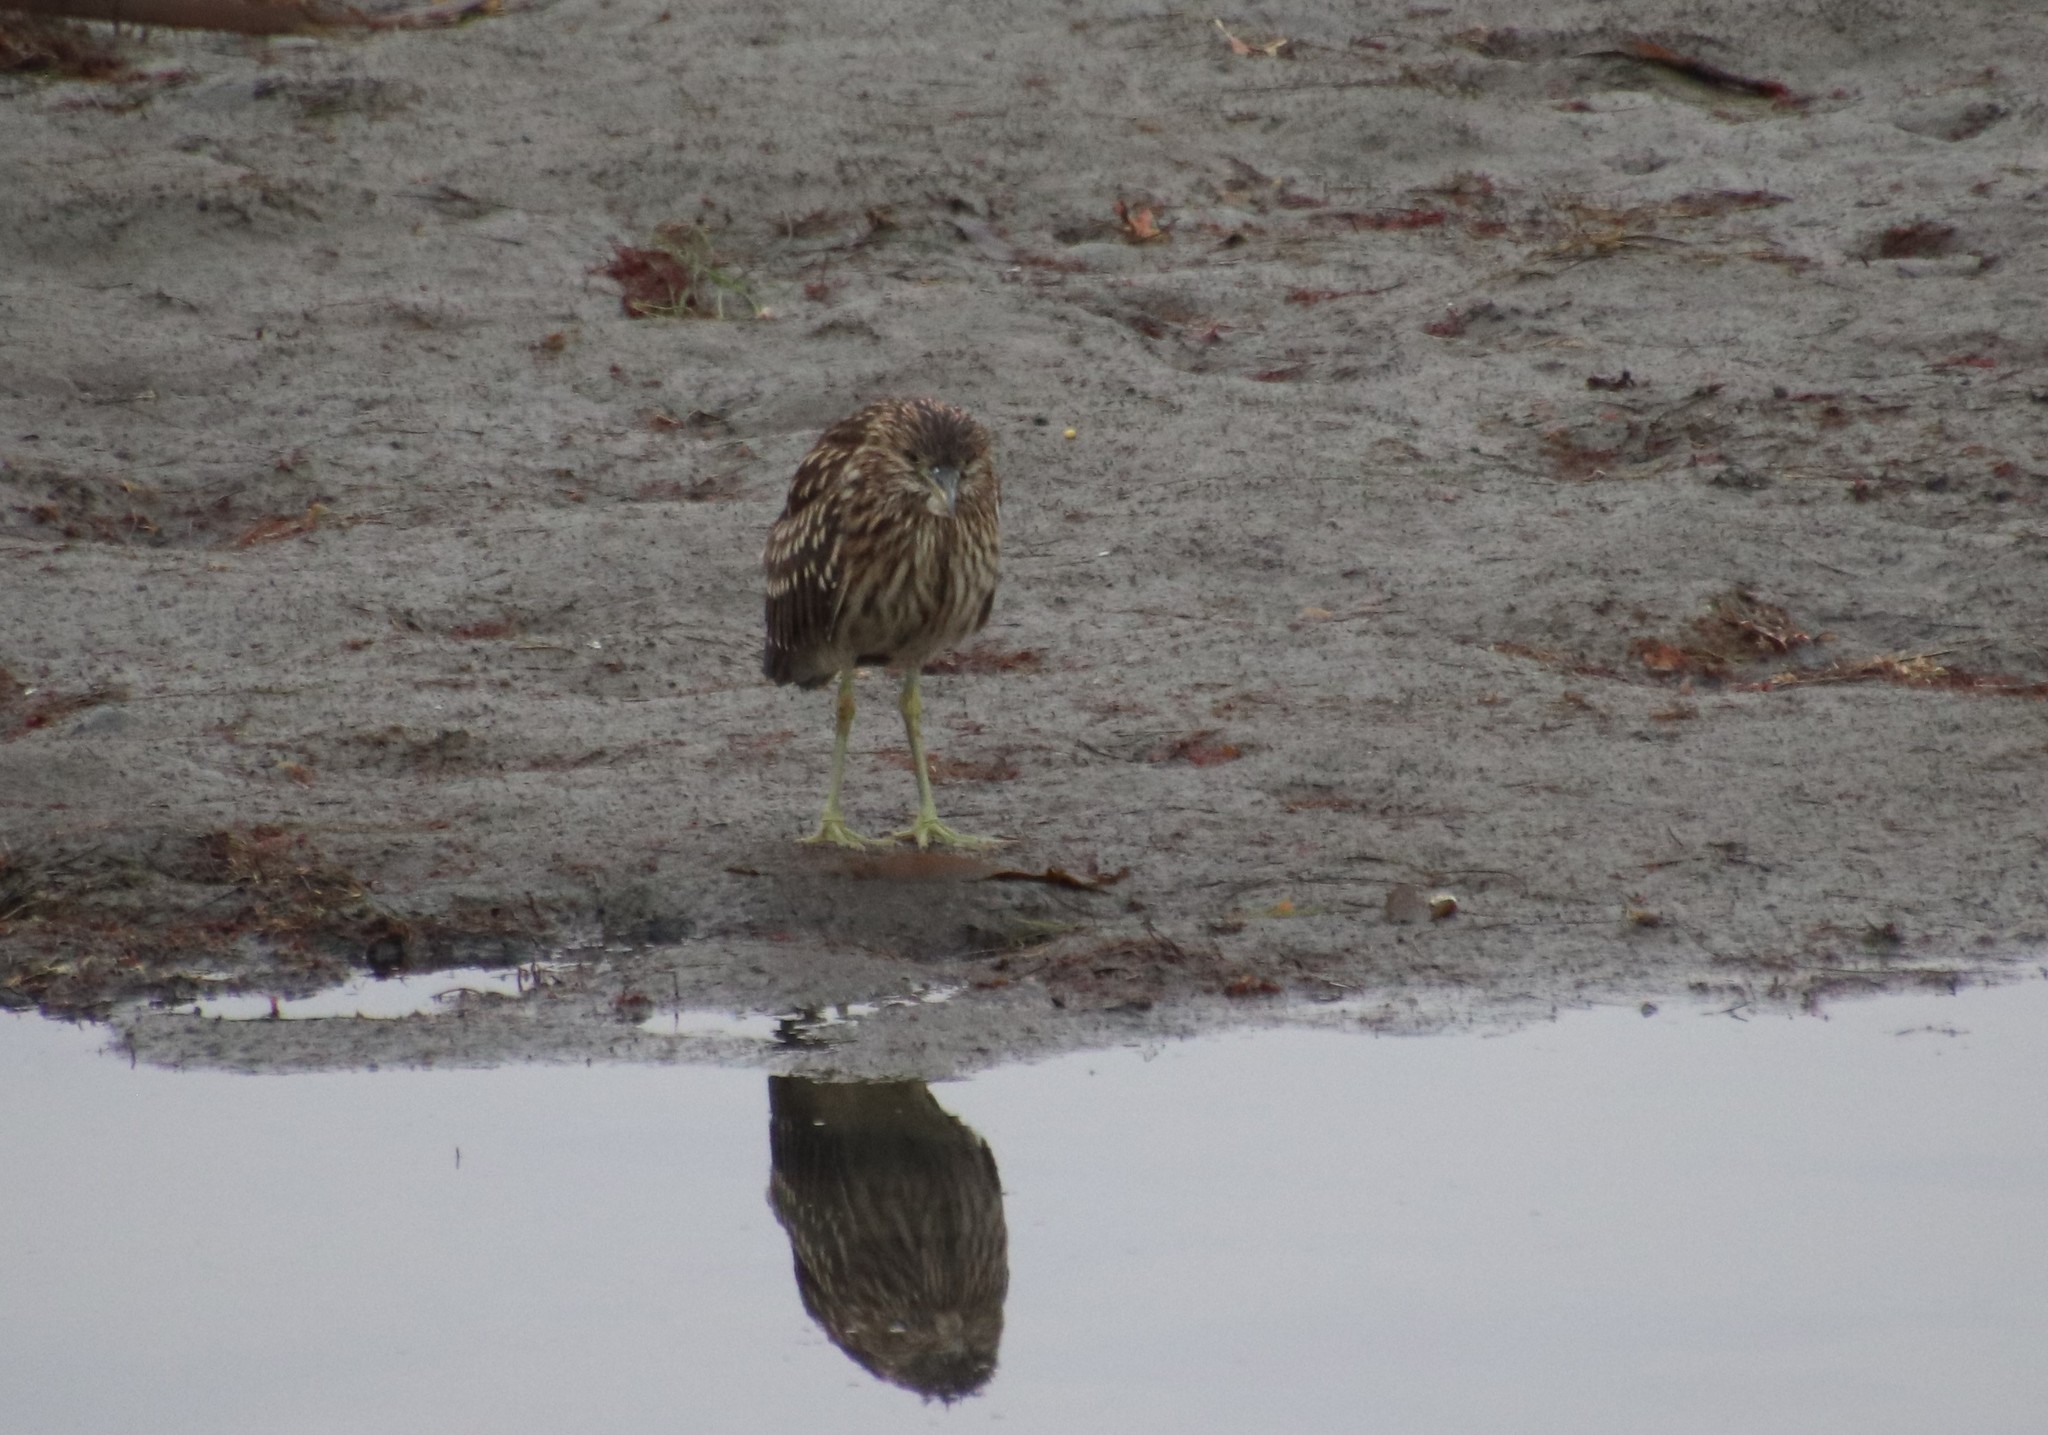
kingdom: Animalia
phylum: Chordata
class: Aves
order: Pelecaniformes
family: Ardeidae
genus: Nycticorax
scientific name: Nycticorax nycticorax
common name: Black-crowned night heron
